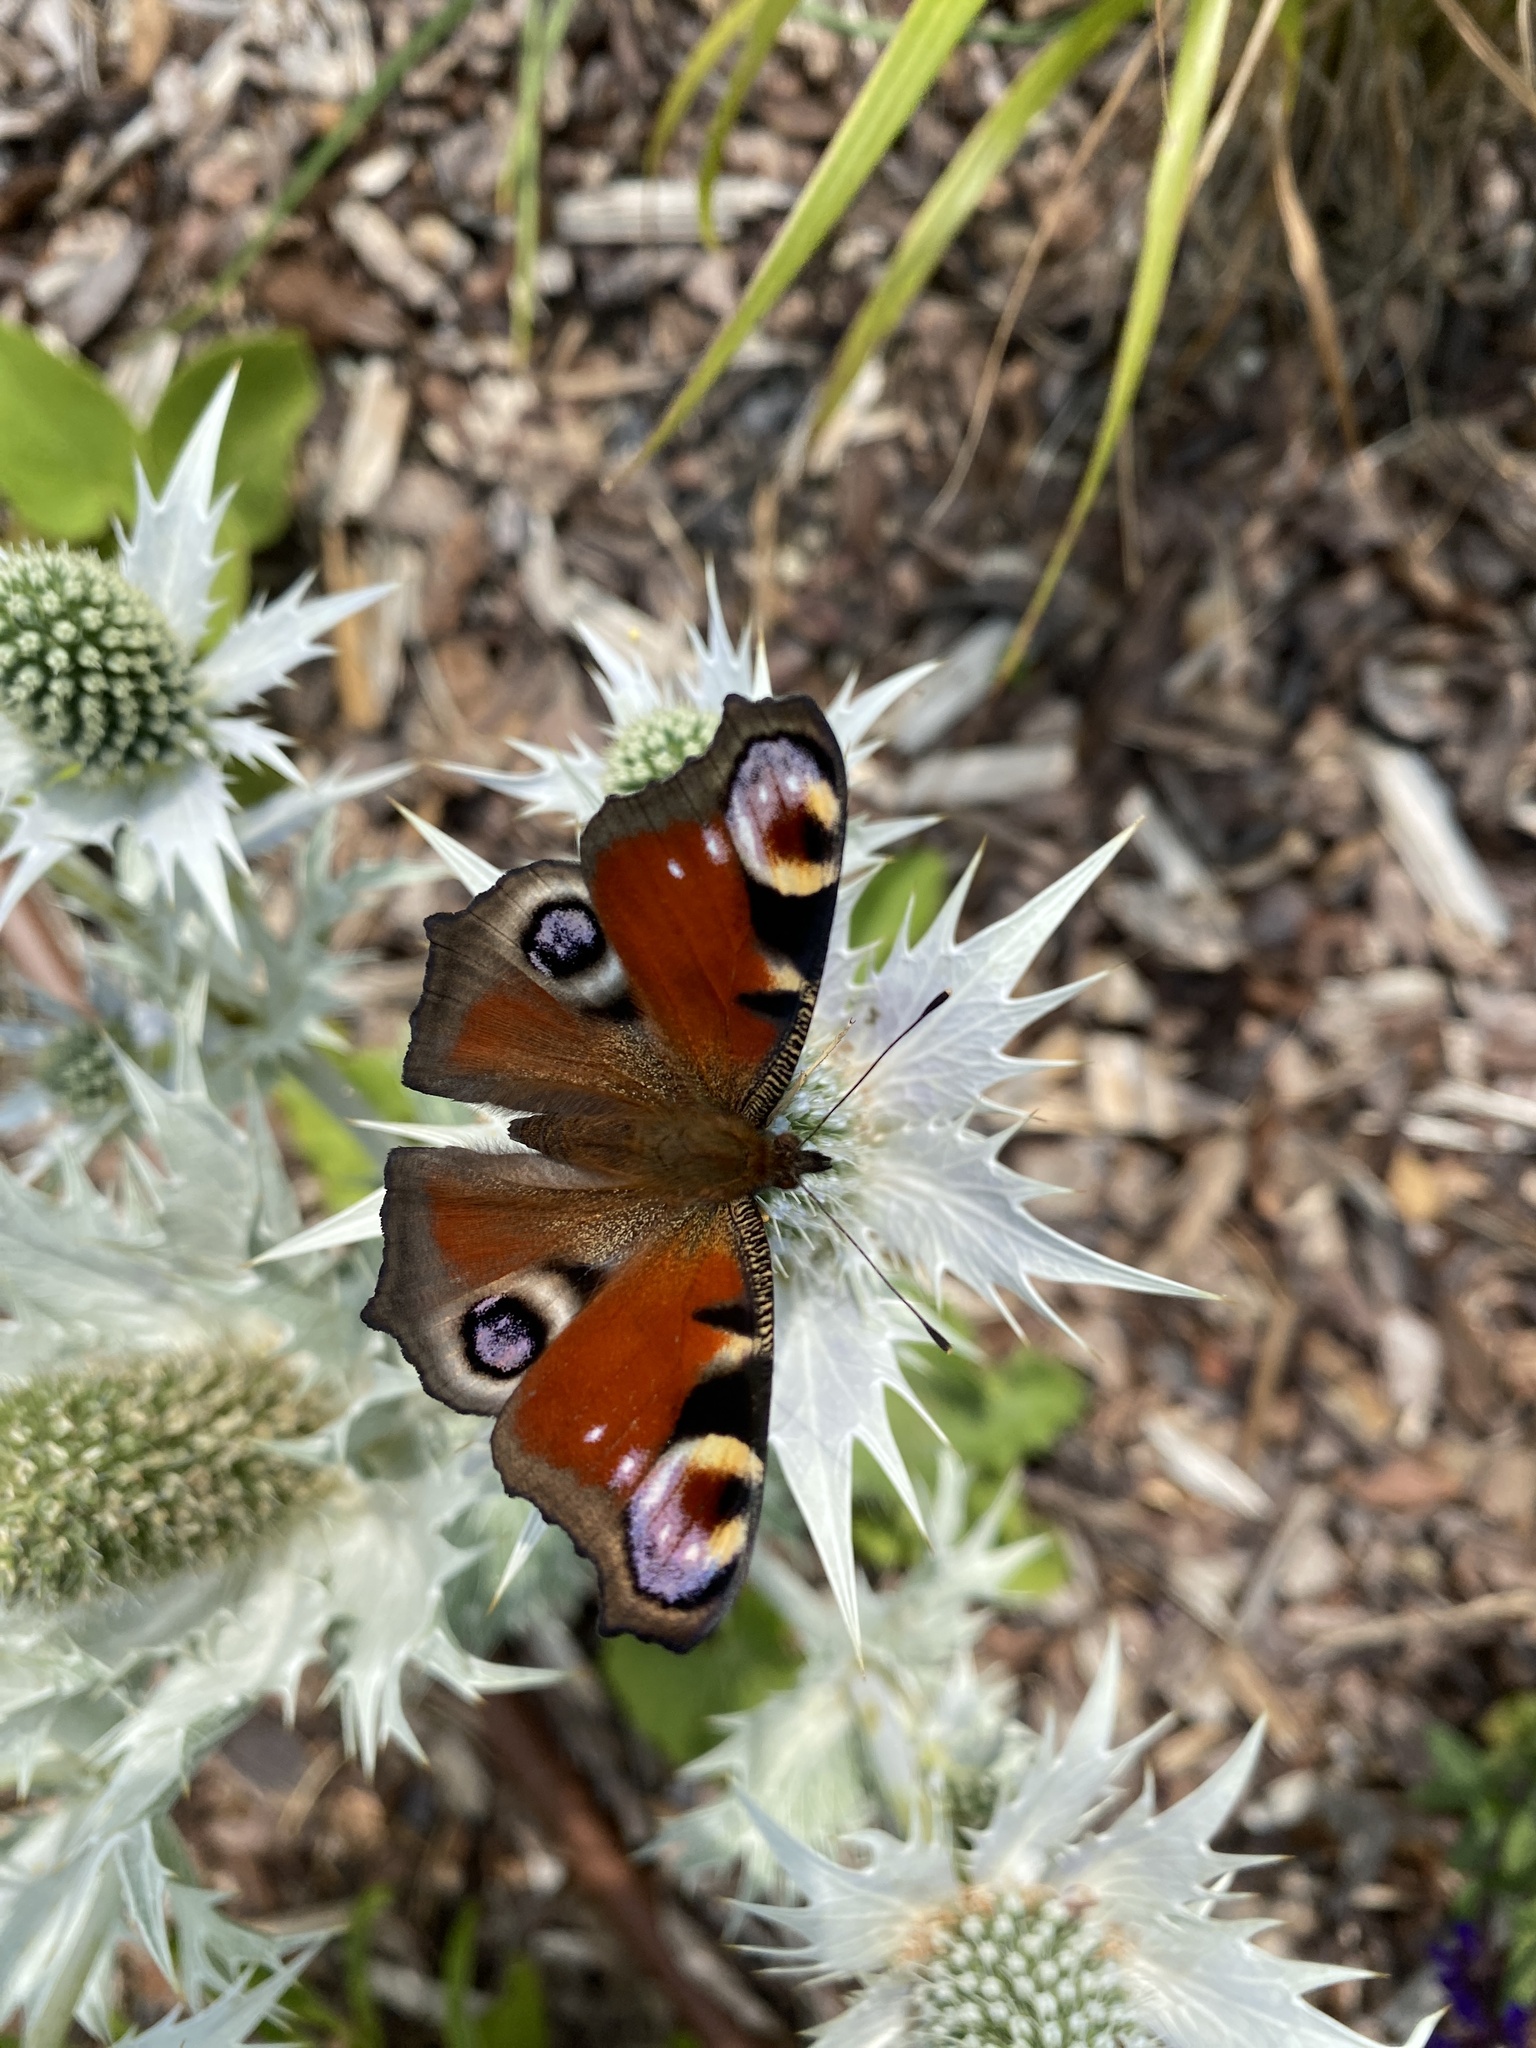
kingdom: Animalia
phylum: Arthropoda
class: Insecta
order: Lepidoptera
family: Nymphalidae
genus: Aglais
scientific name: Aglais io
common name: Peacock
